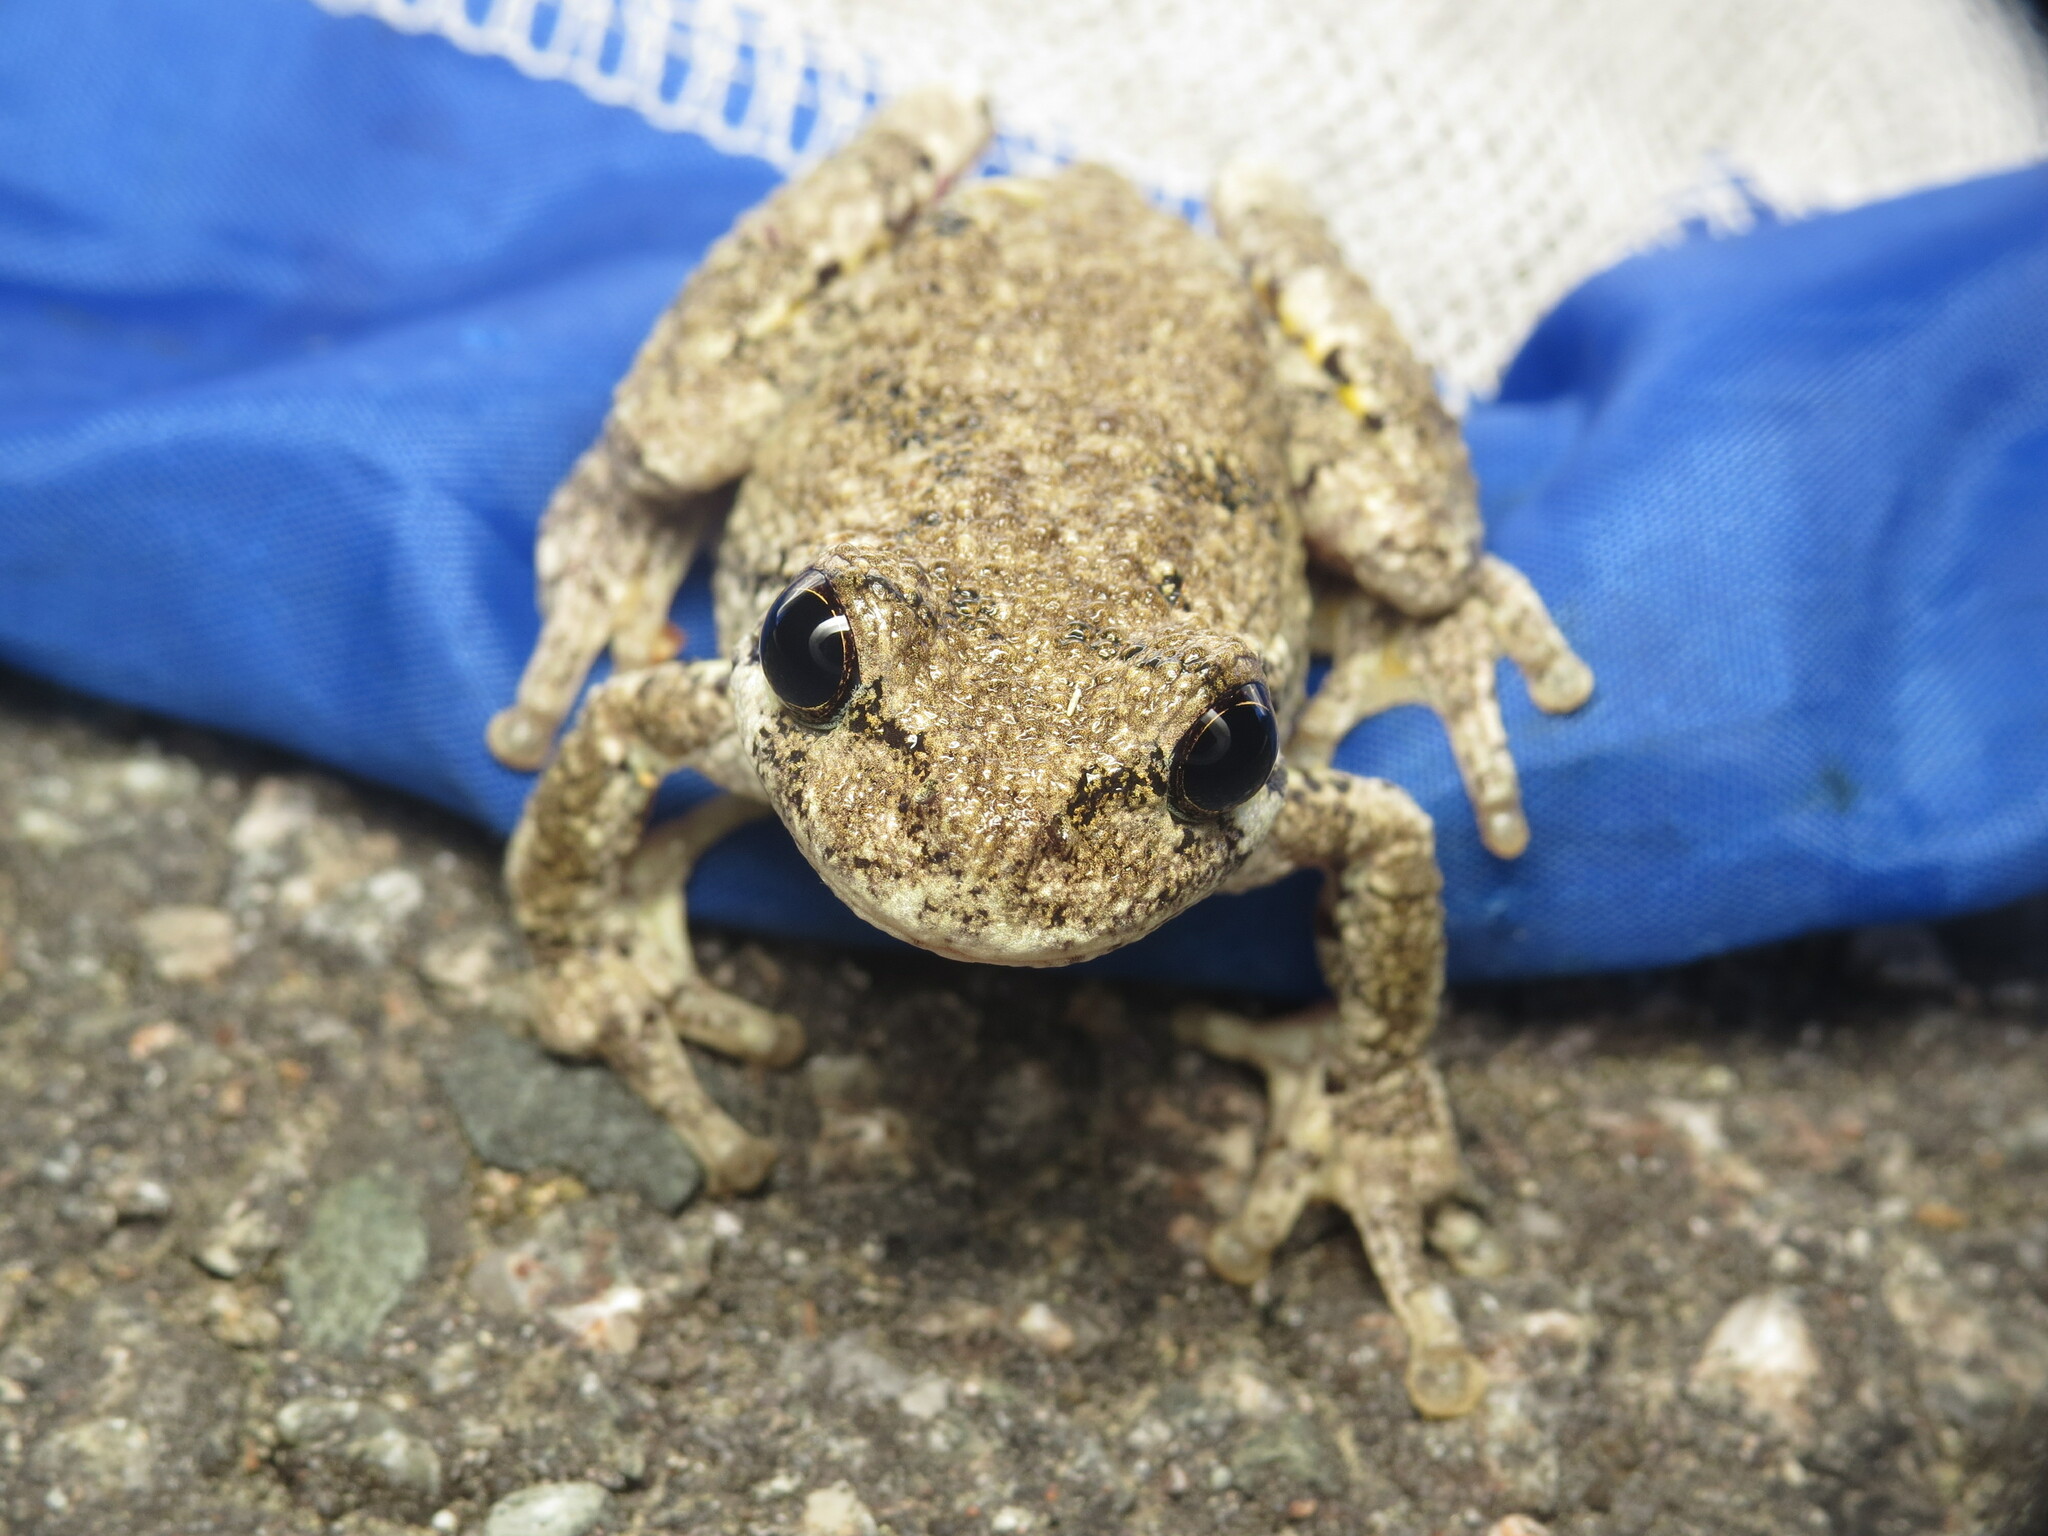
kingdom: Animalia
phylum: Chordata
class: Amphibia
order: Anura
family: Hylidae
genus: Dryophytes
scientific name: Dryophytes versicolor
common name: Gray treefrog
